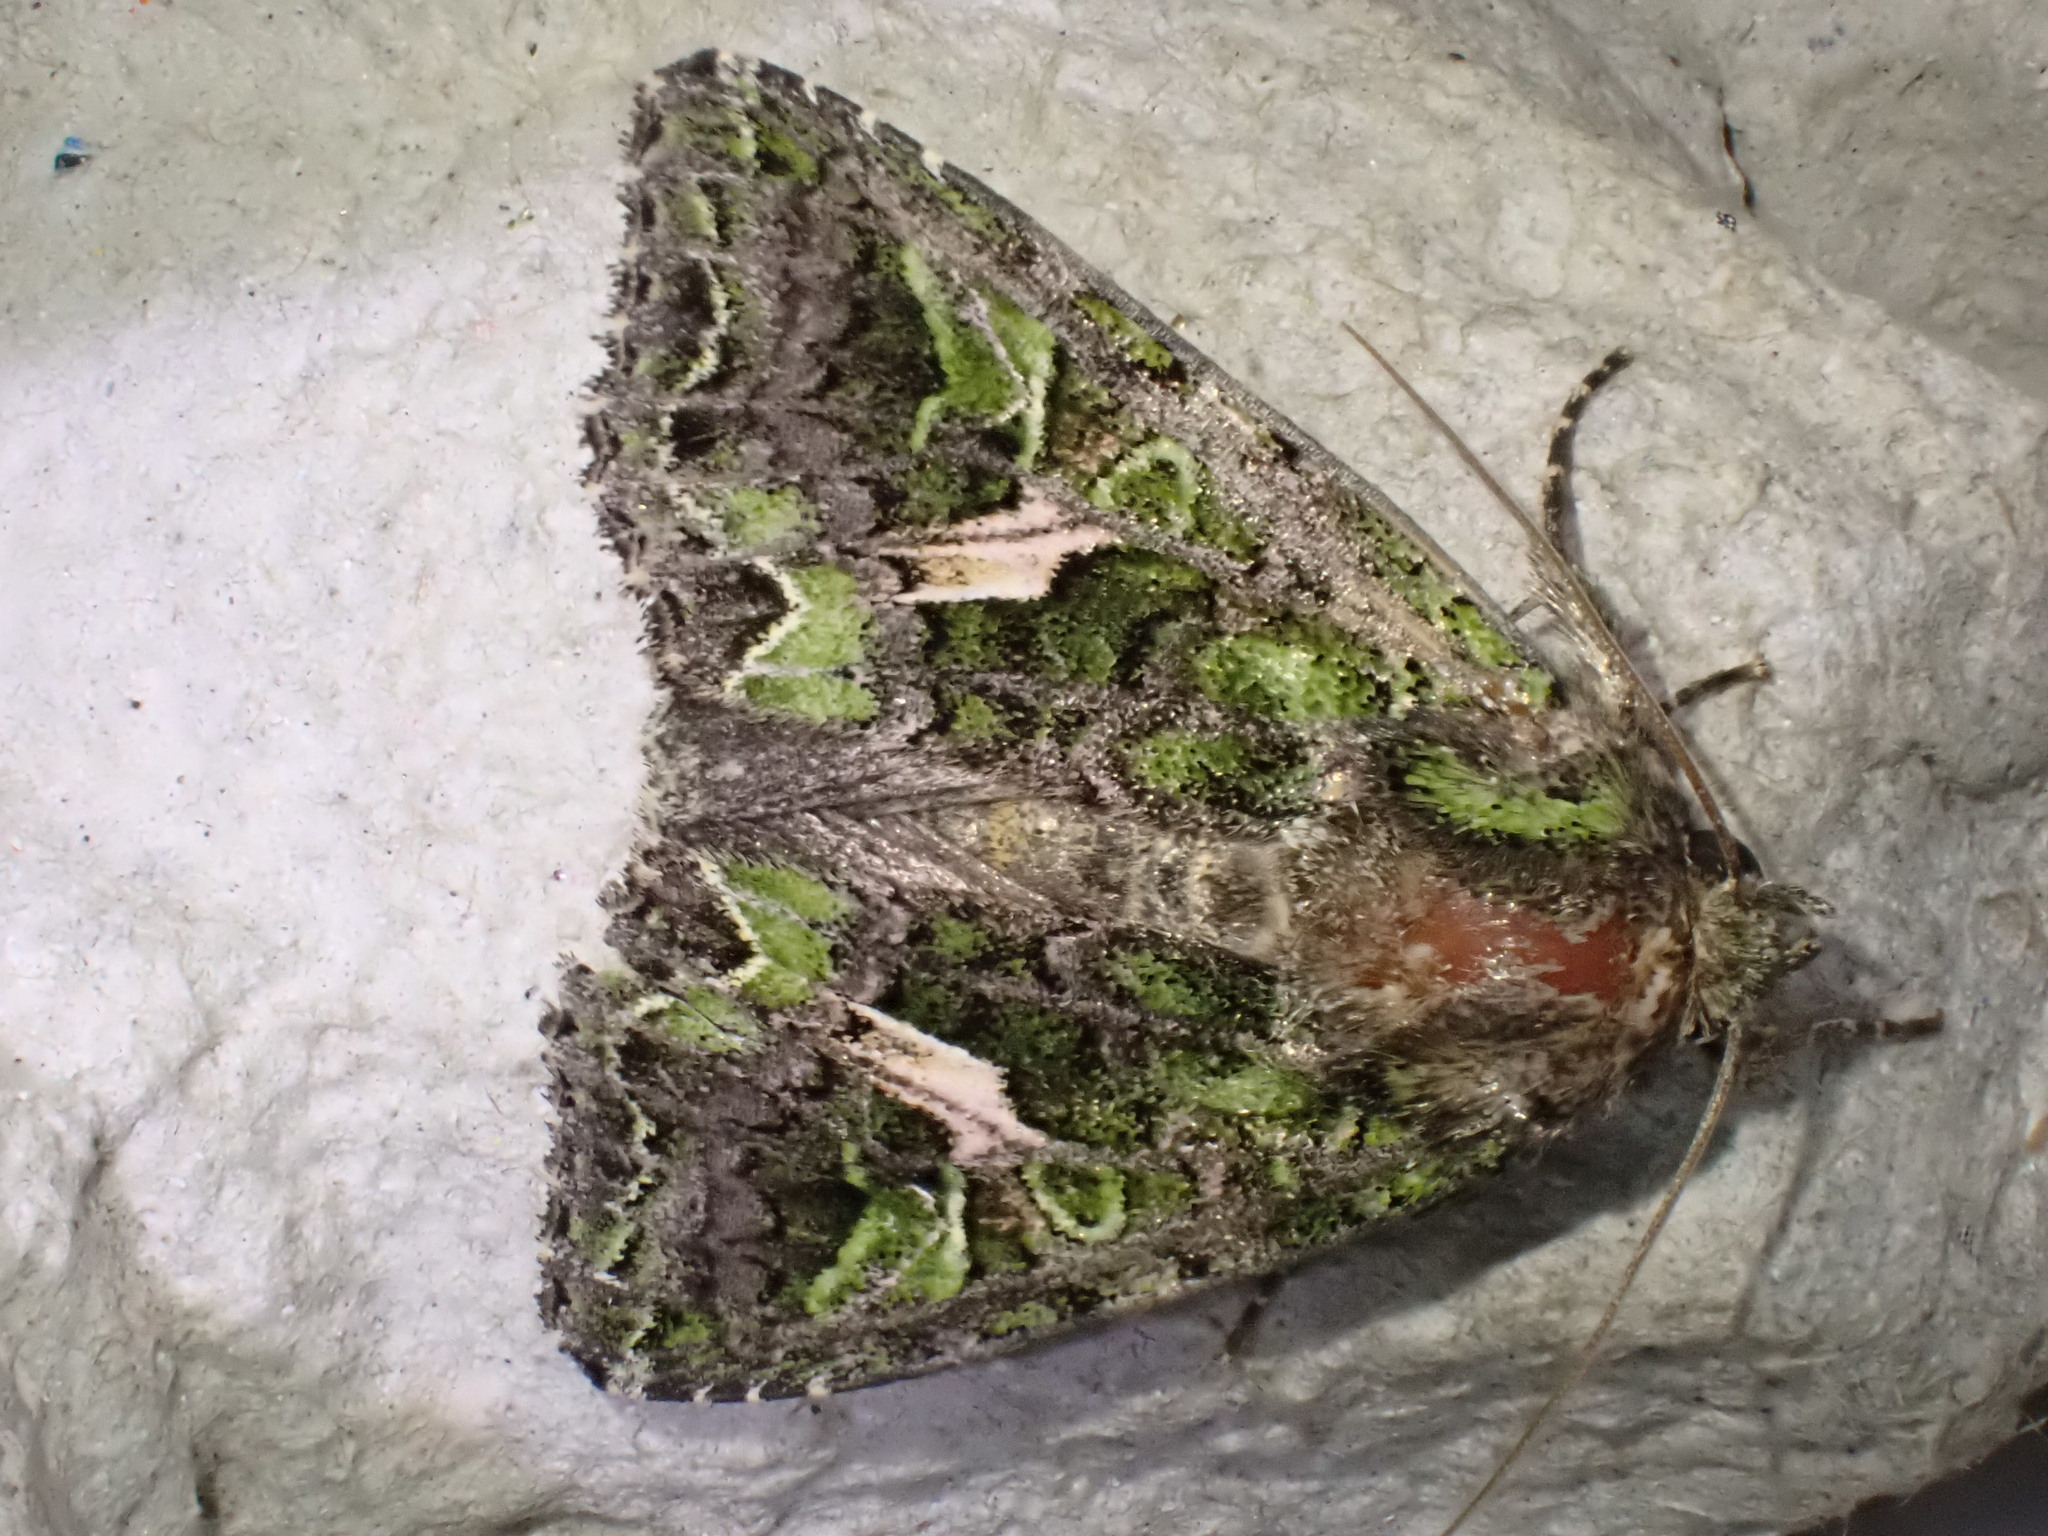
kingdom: Animalia
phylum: Arthropoda
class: Insecta
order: Lepidoptera
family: Noctuidae
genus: Trachea
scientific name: Trachea atriplicis
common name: Orache moth
